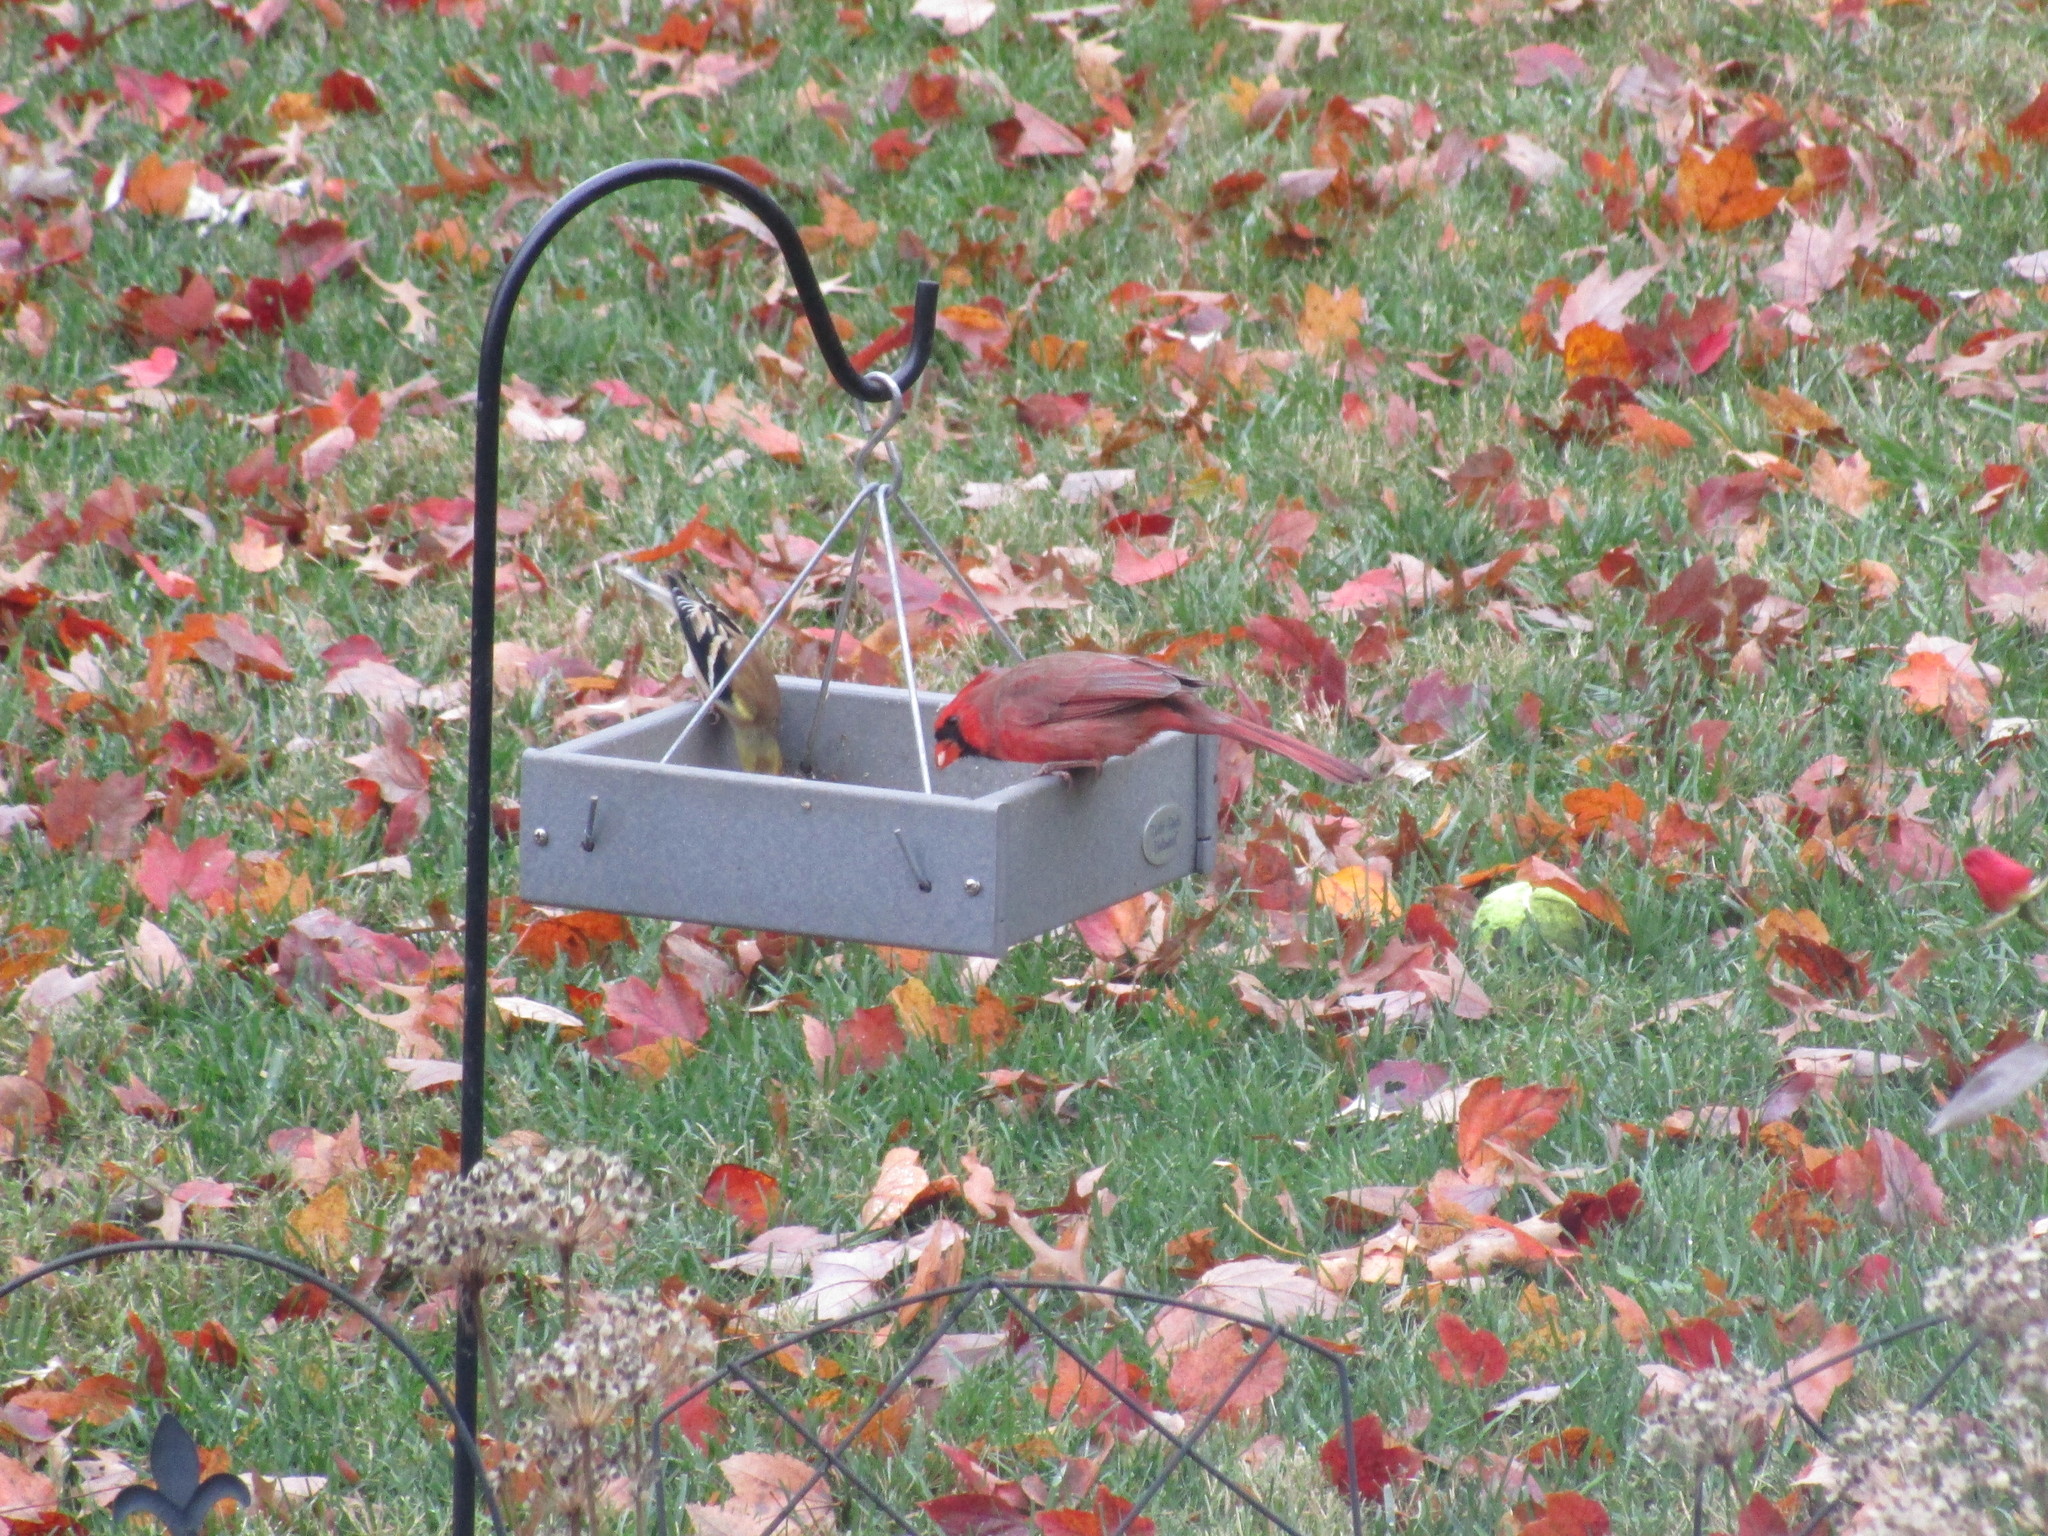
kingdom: Animalia
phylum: Chordata
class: Aves
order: Passeriformes
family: Cardinalidae
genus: Cardinalis
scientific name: Cardinalis cardinalis
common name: Northern cardinal
